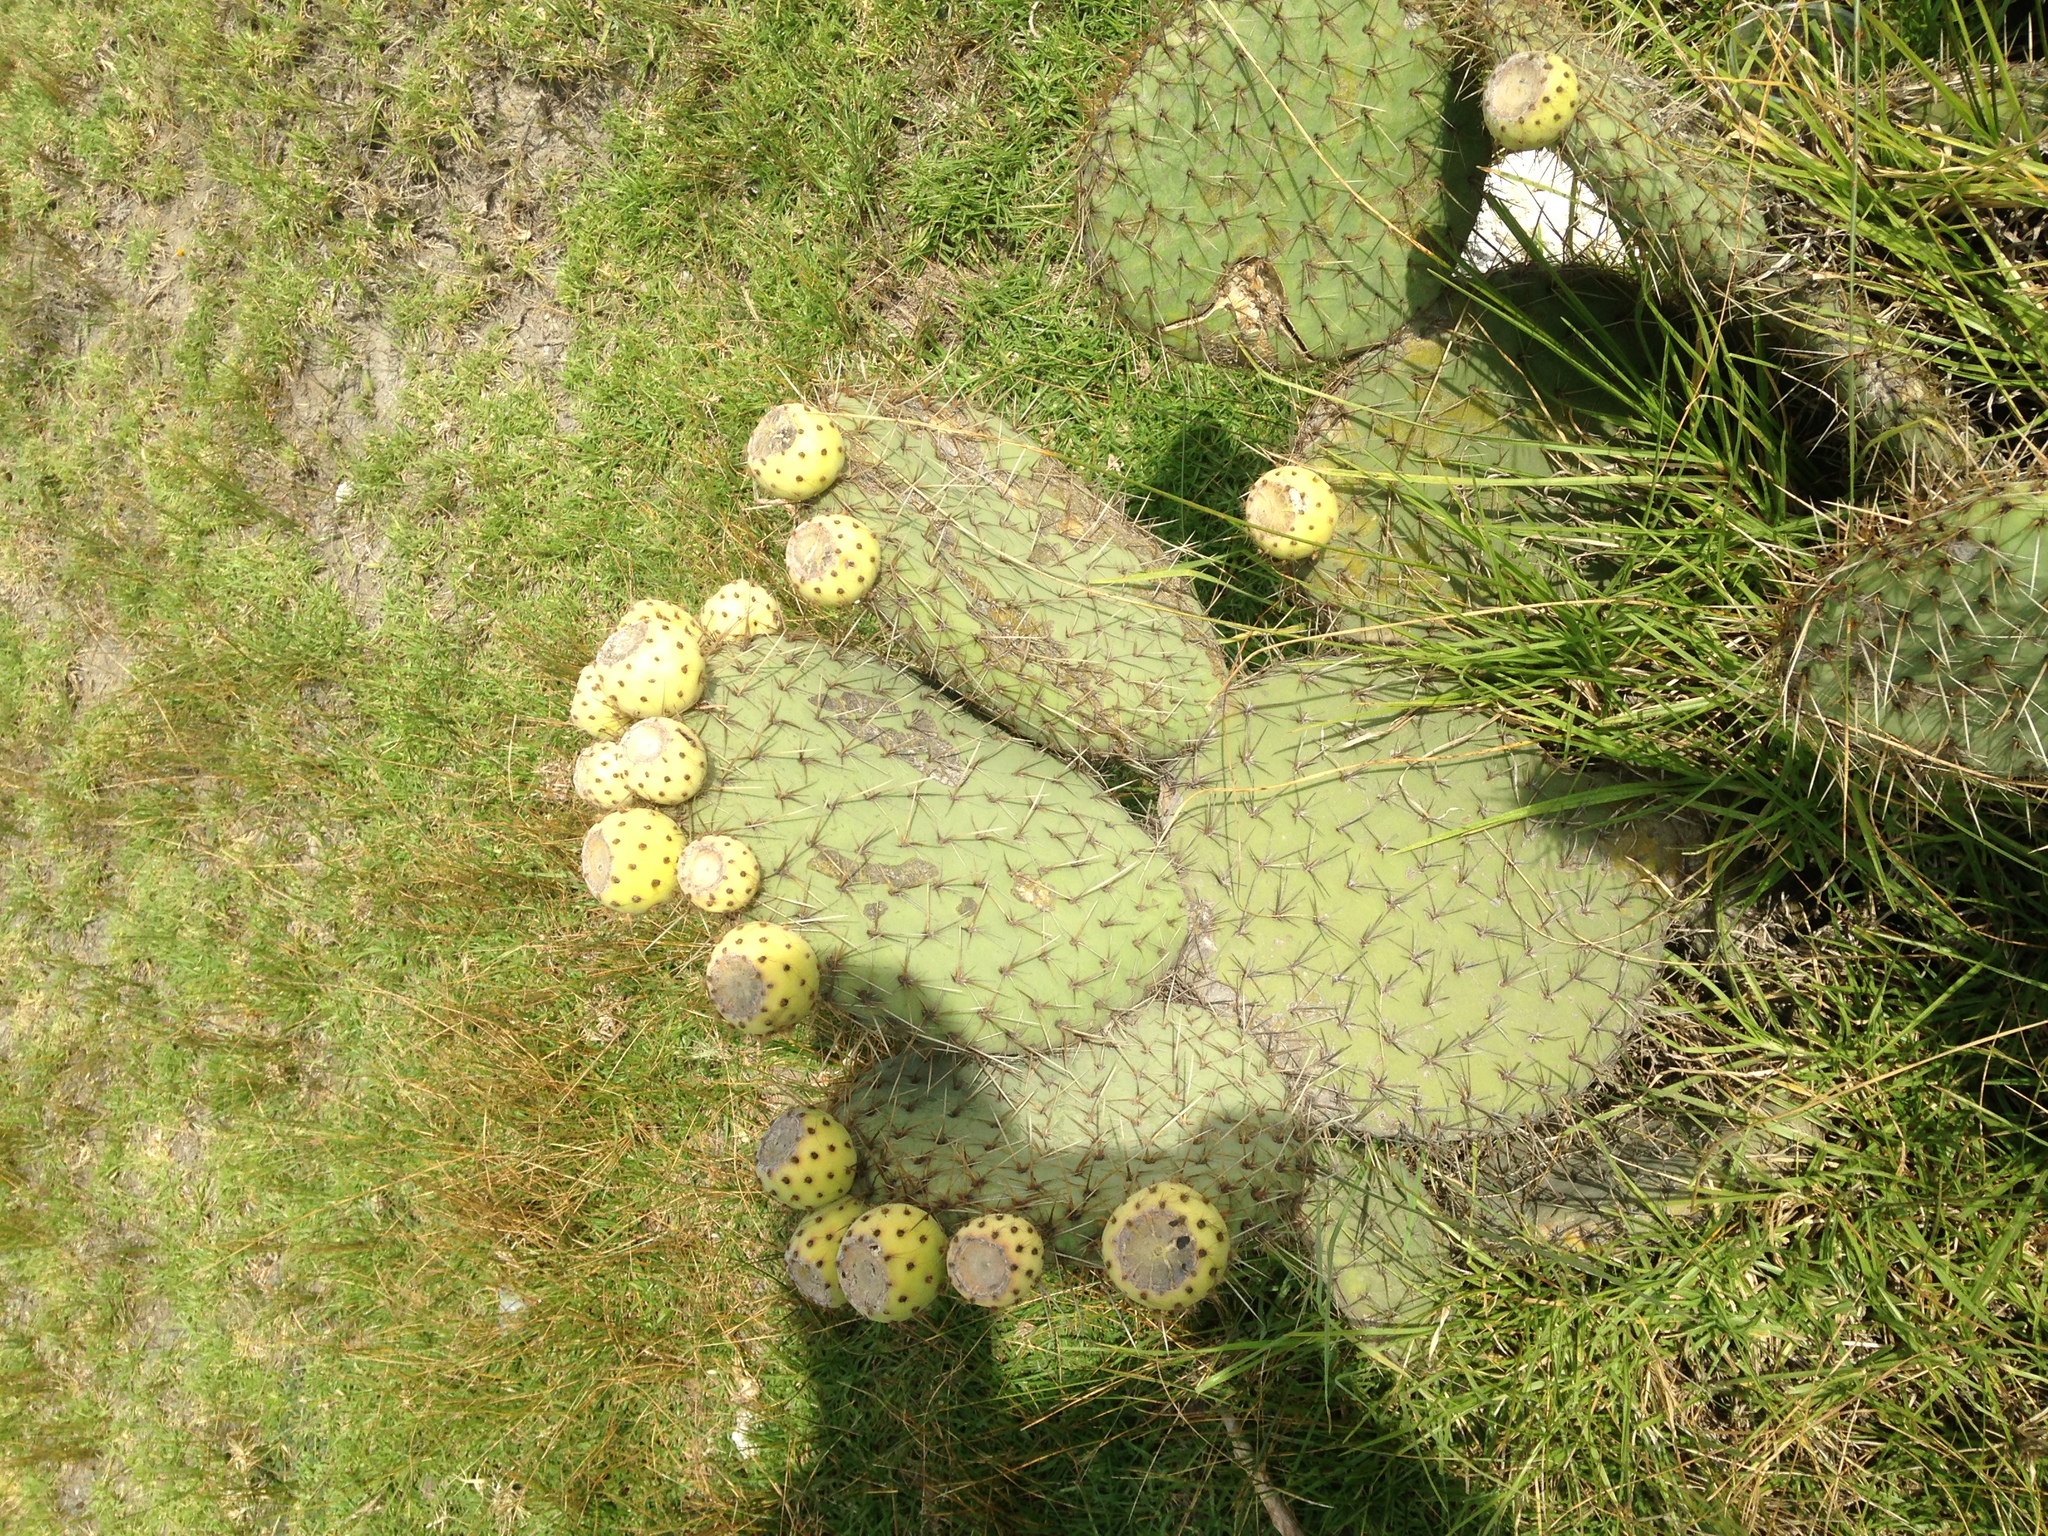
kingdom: Plantae
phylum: Tracheophyta
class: Magnoliopsida
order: Caryophyllales
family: Cactaceae
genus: Opuntia
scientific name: Opuntia huajuapensis
